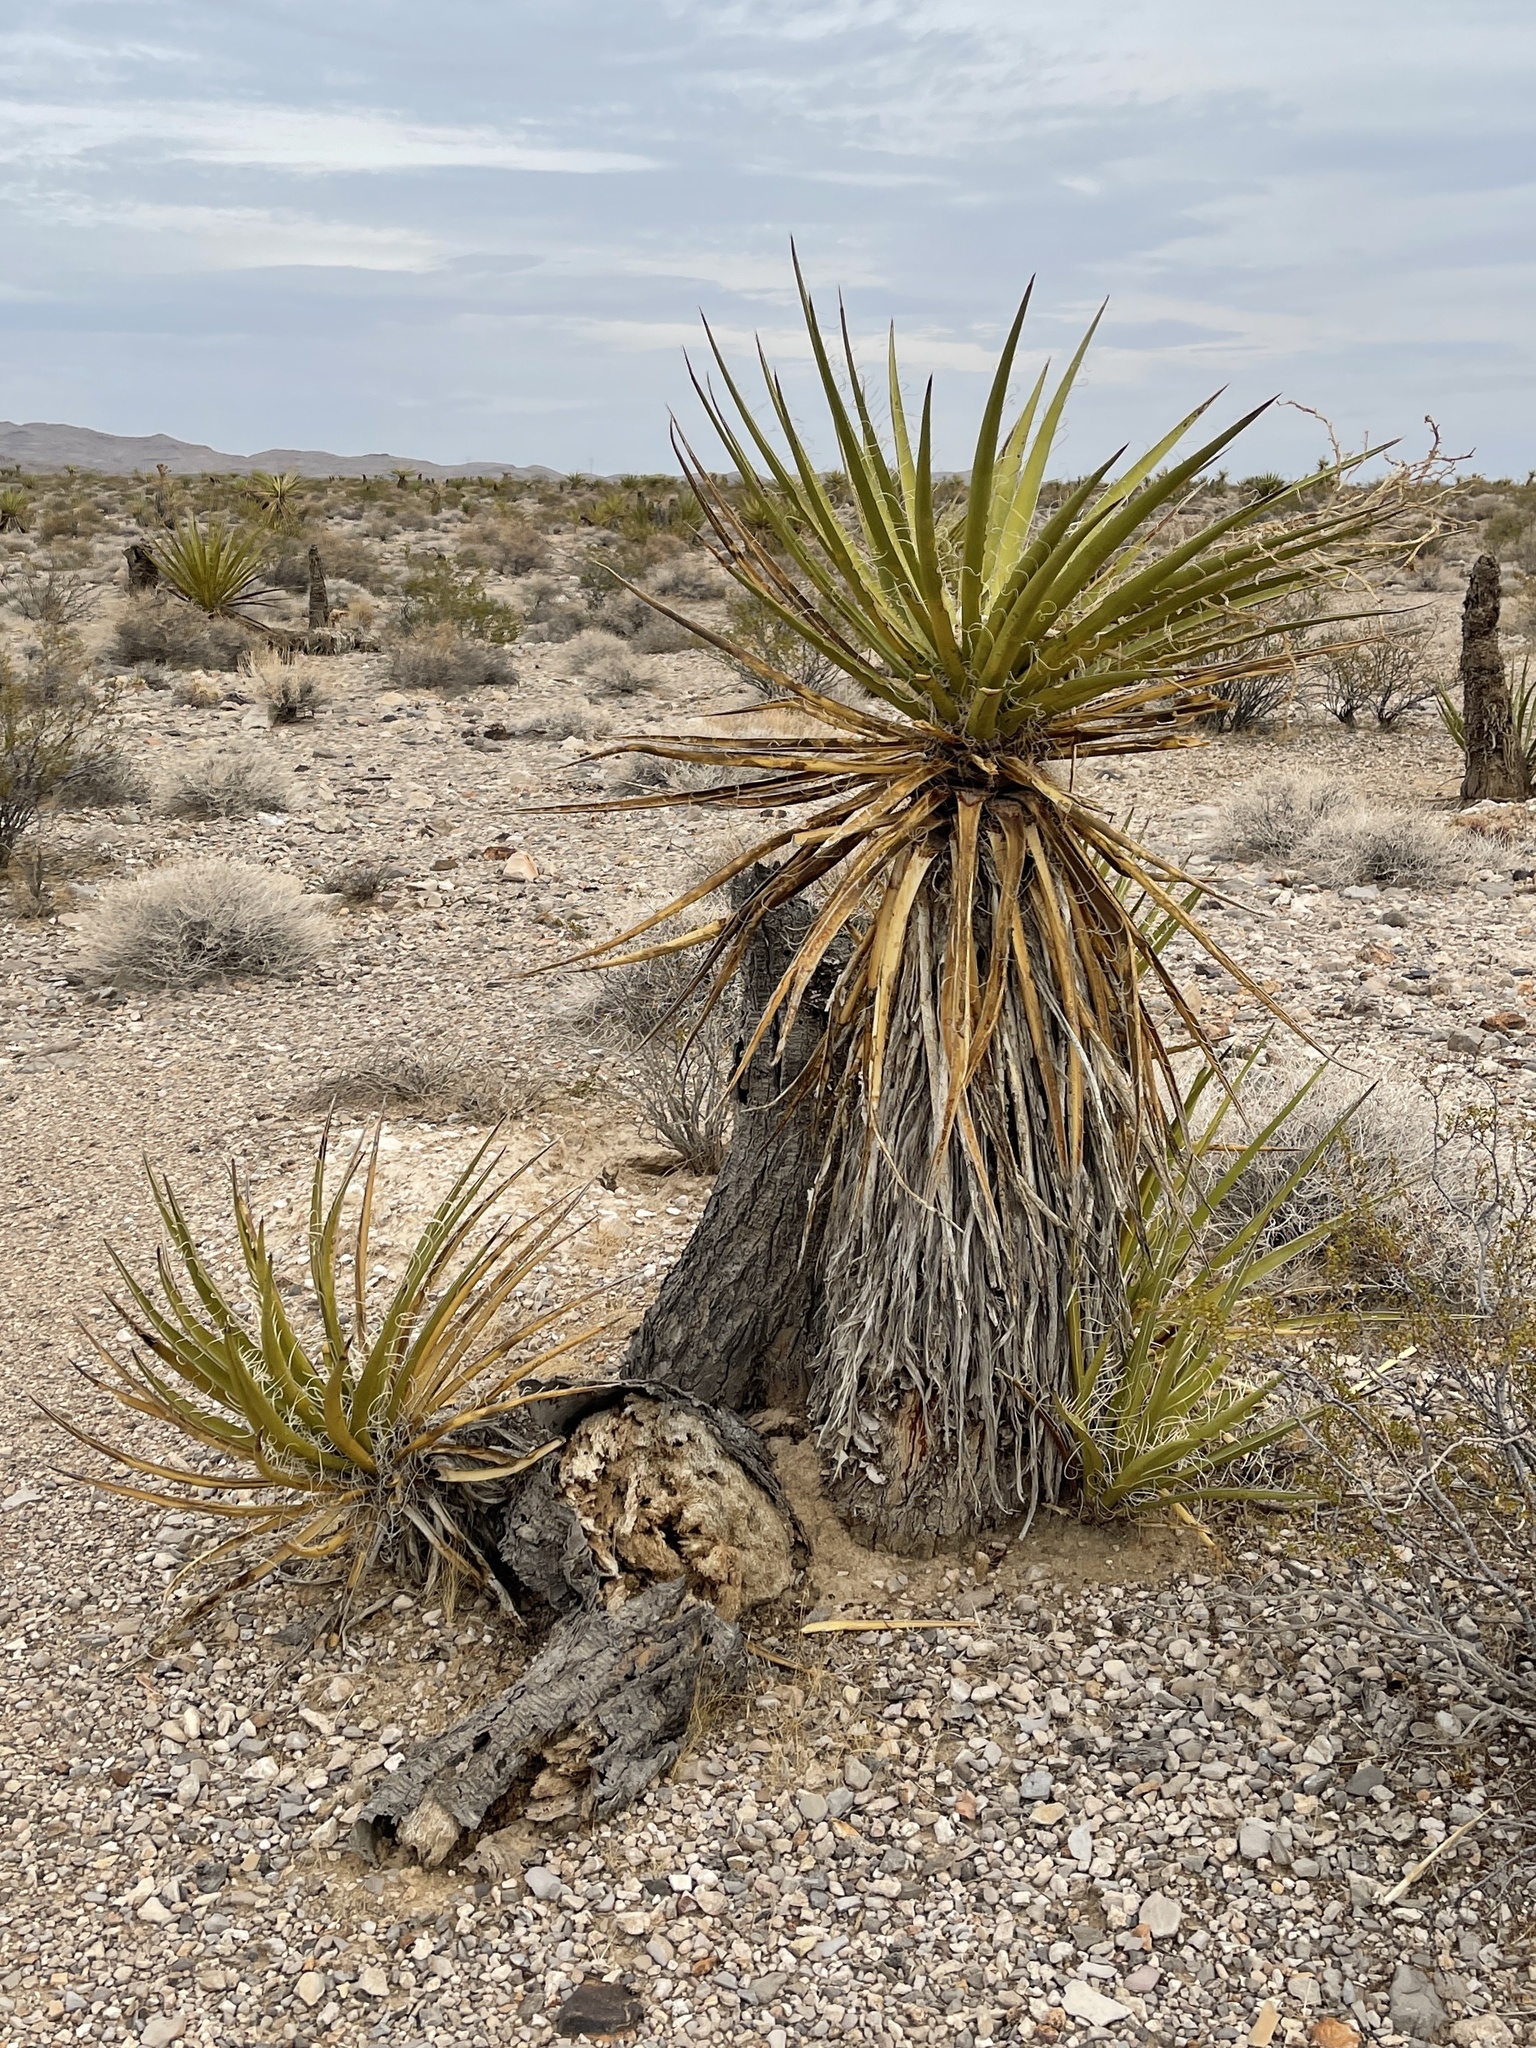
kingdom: Plantae
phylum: Tracheophyta
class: Liliopsida
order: Asparagales
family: Asparagaceae
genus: Yucca
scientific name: Yucca schidigera
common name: Mojave yucca
